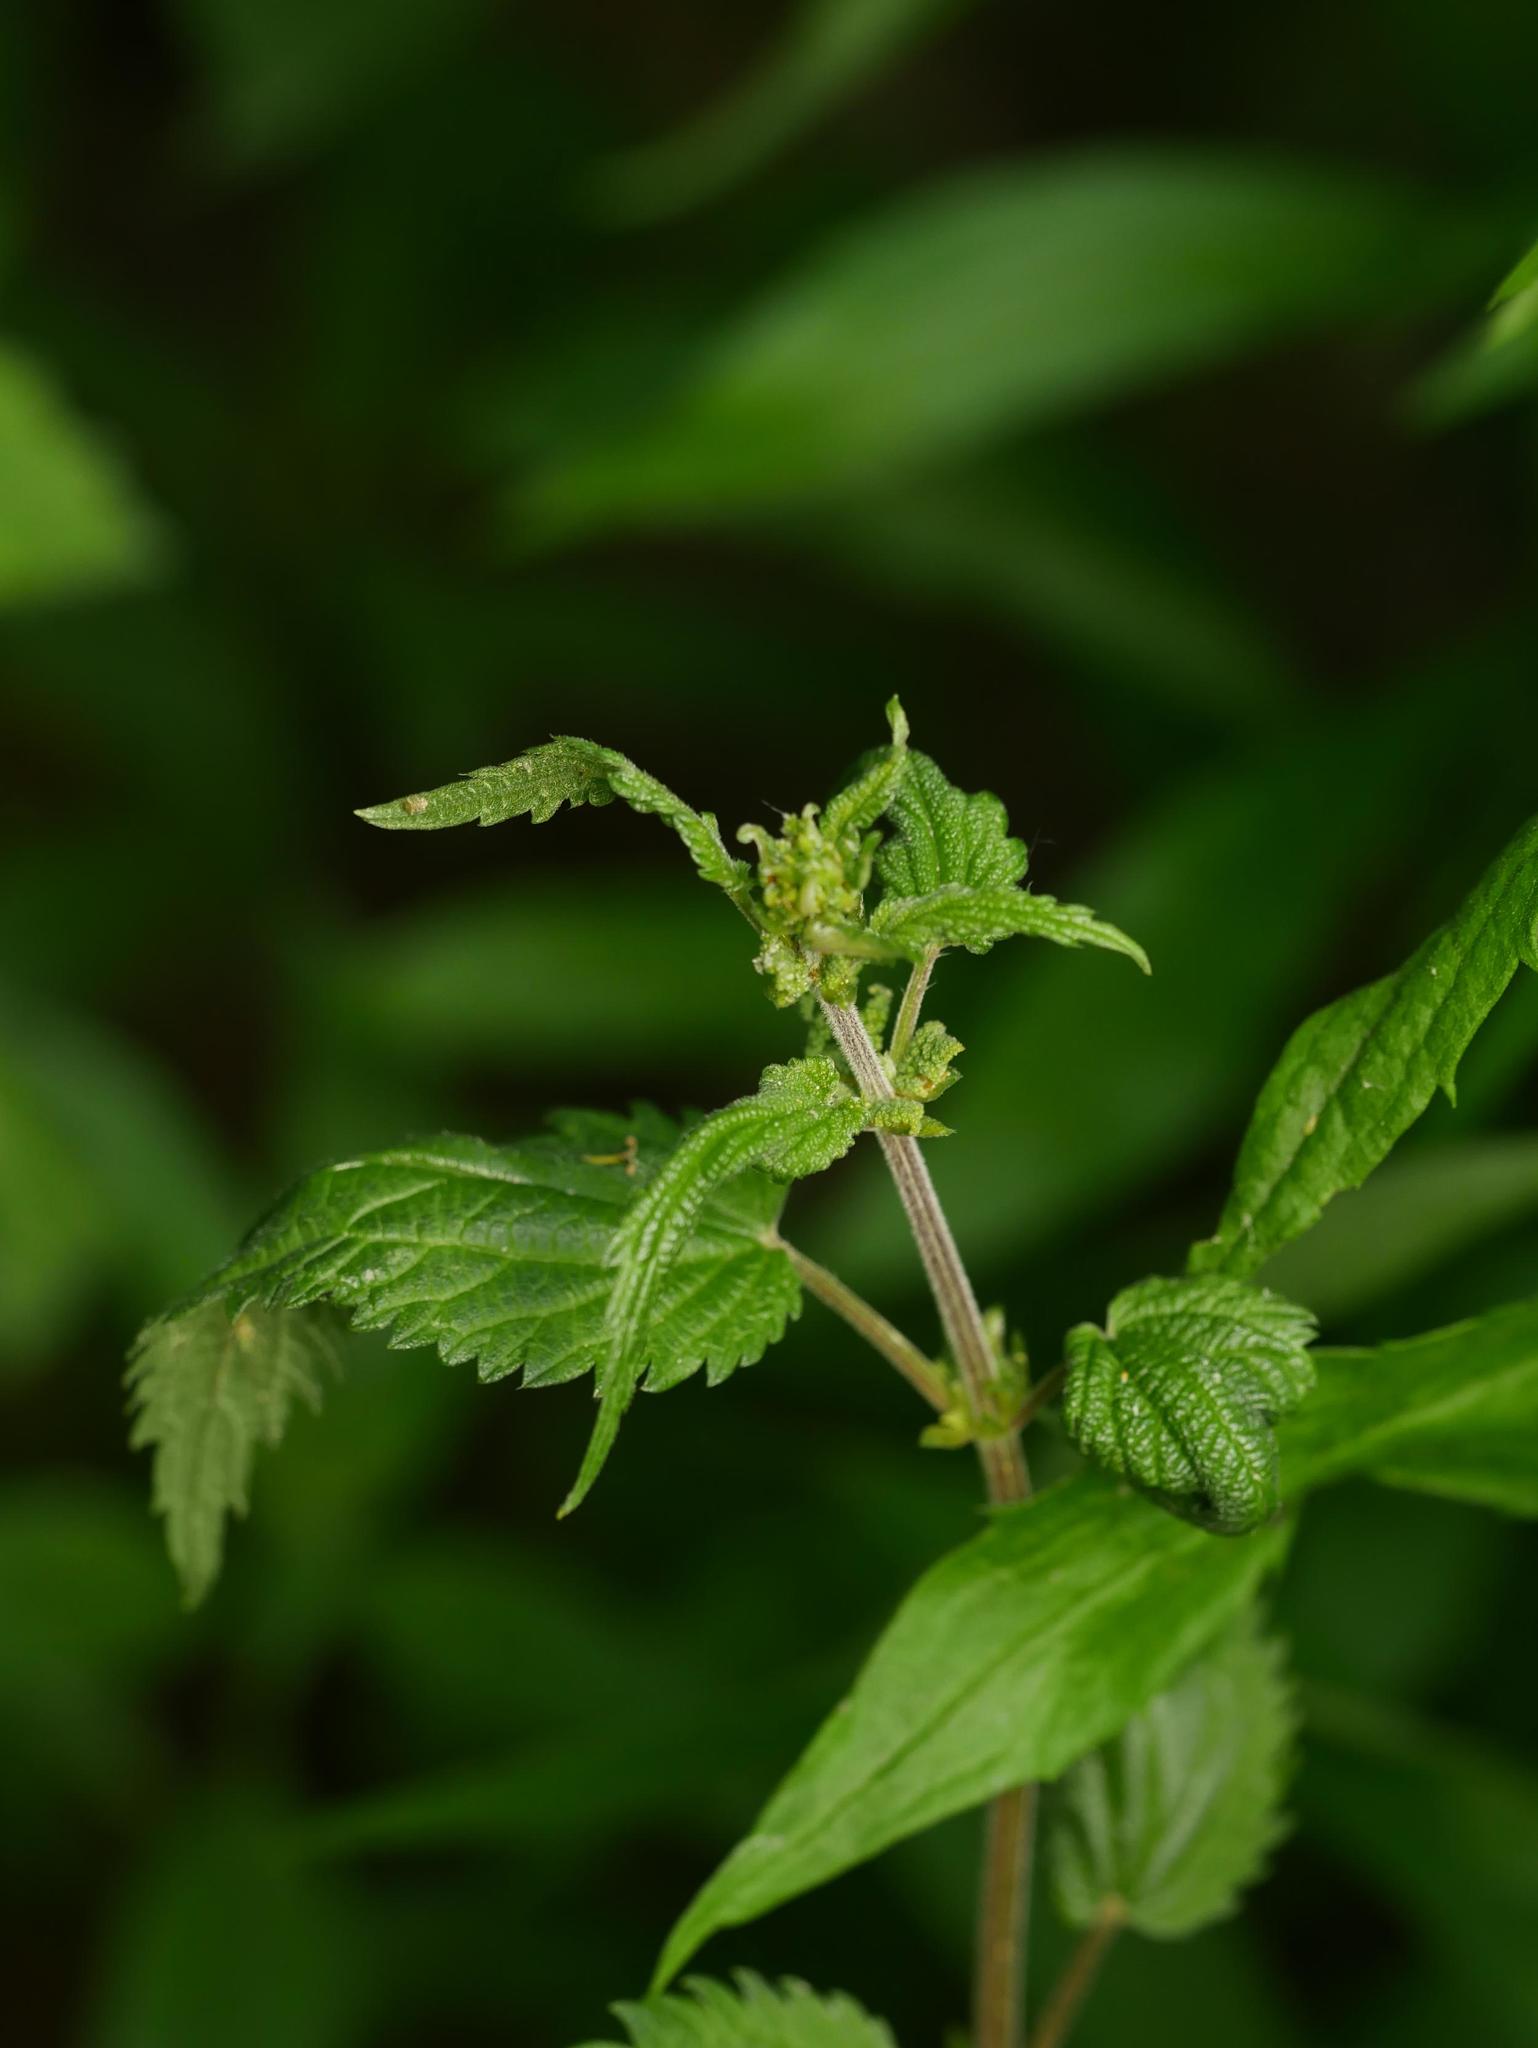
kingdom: Plantae
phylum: Tracheophyta
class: Magnoliopsida
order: Rosales
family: Urticaceae
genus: Urtica
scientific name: Urtica dioica
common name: Common nettle
